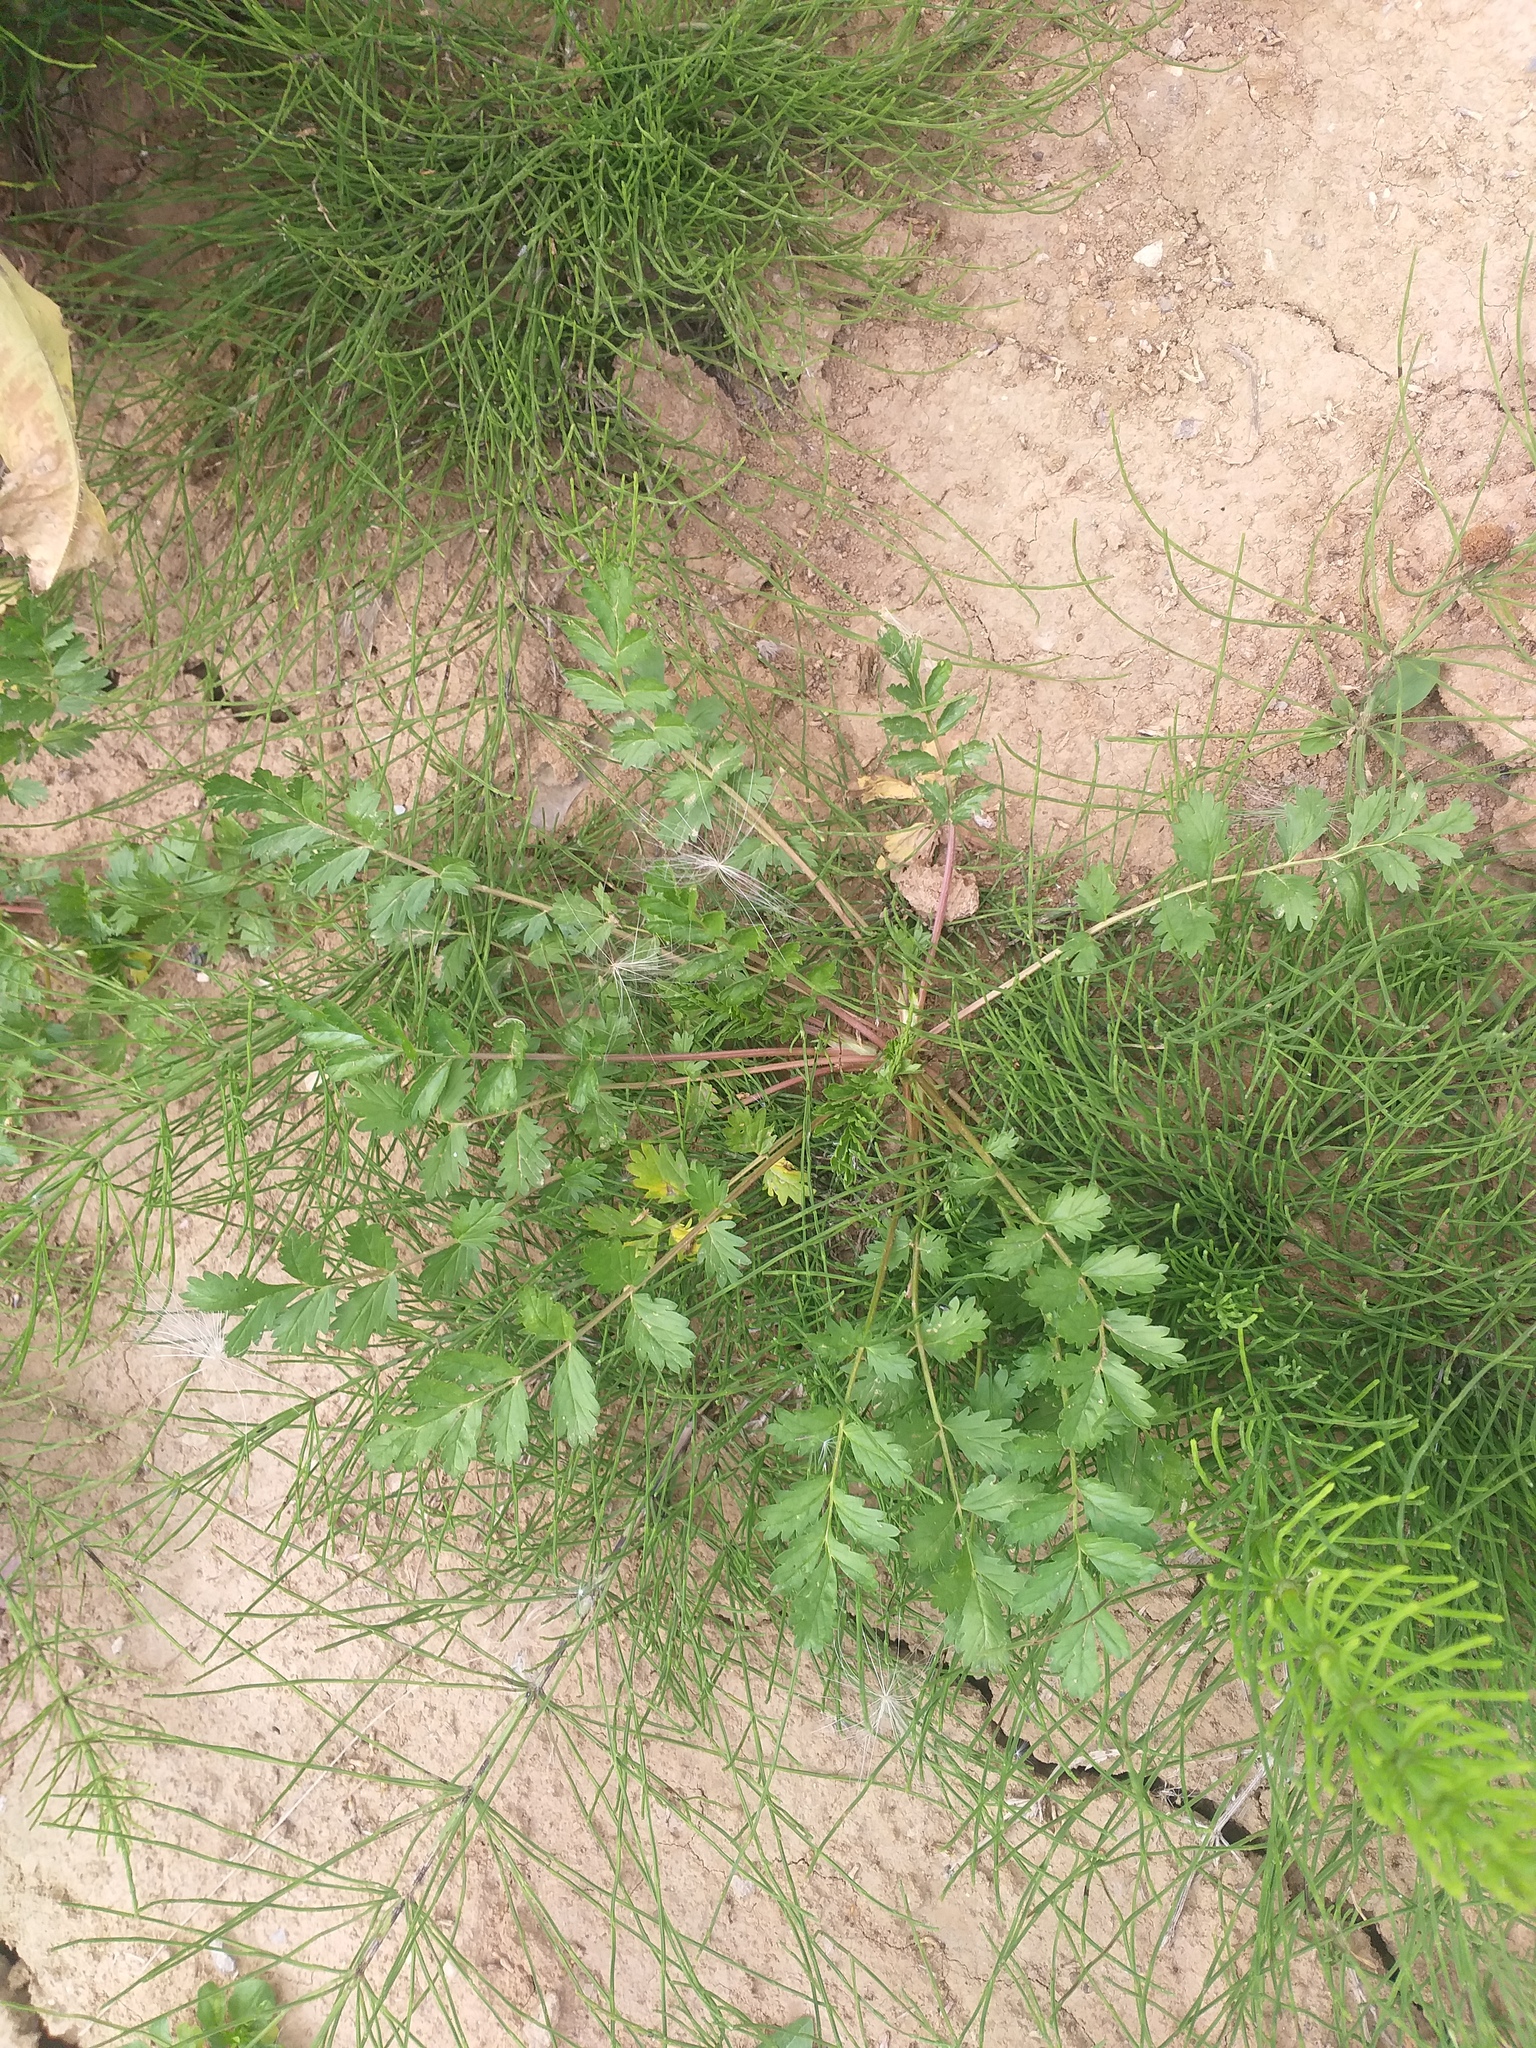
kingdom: Plantae
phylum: Tracheophyta
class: Magnoliopsida
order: Rosales
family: Rosaceae
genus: Potentilla
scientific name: Potentilla supina
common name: Prostrate cinquefoil
